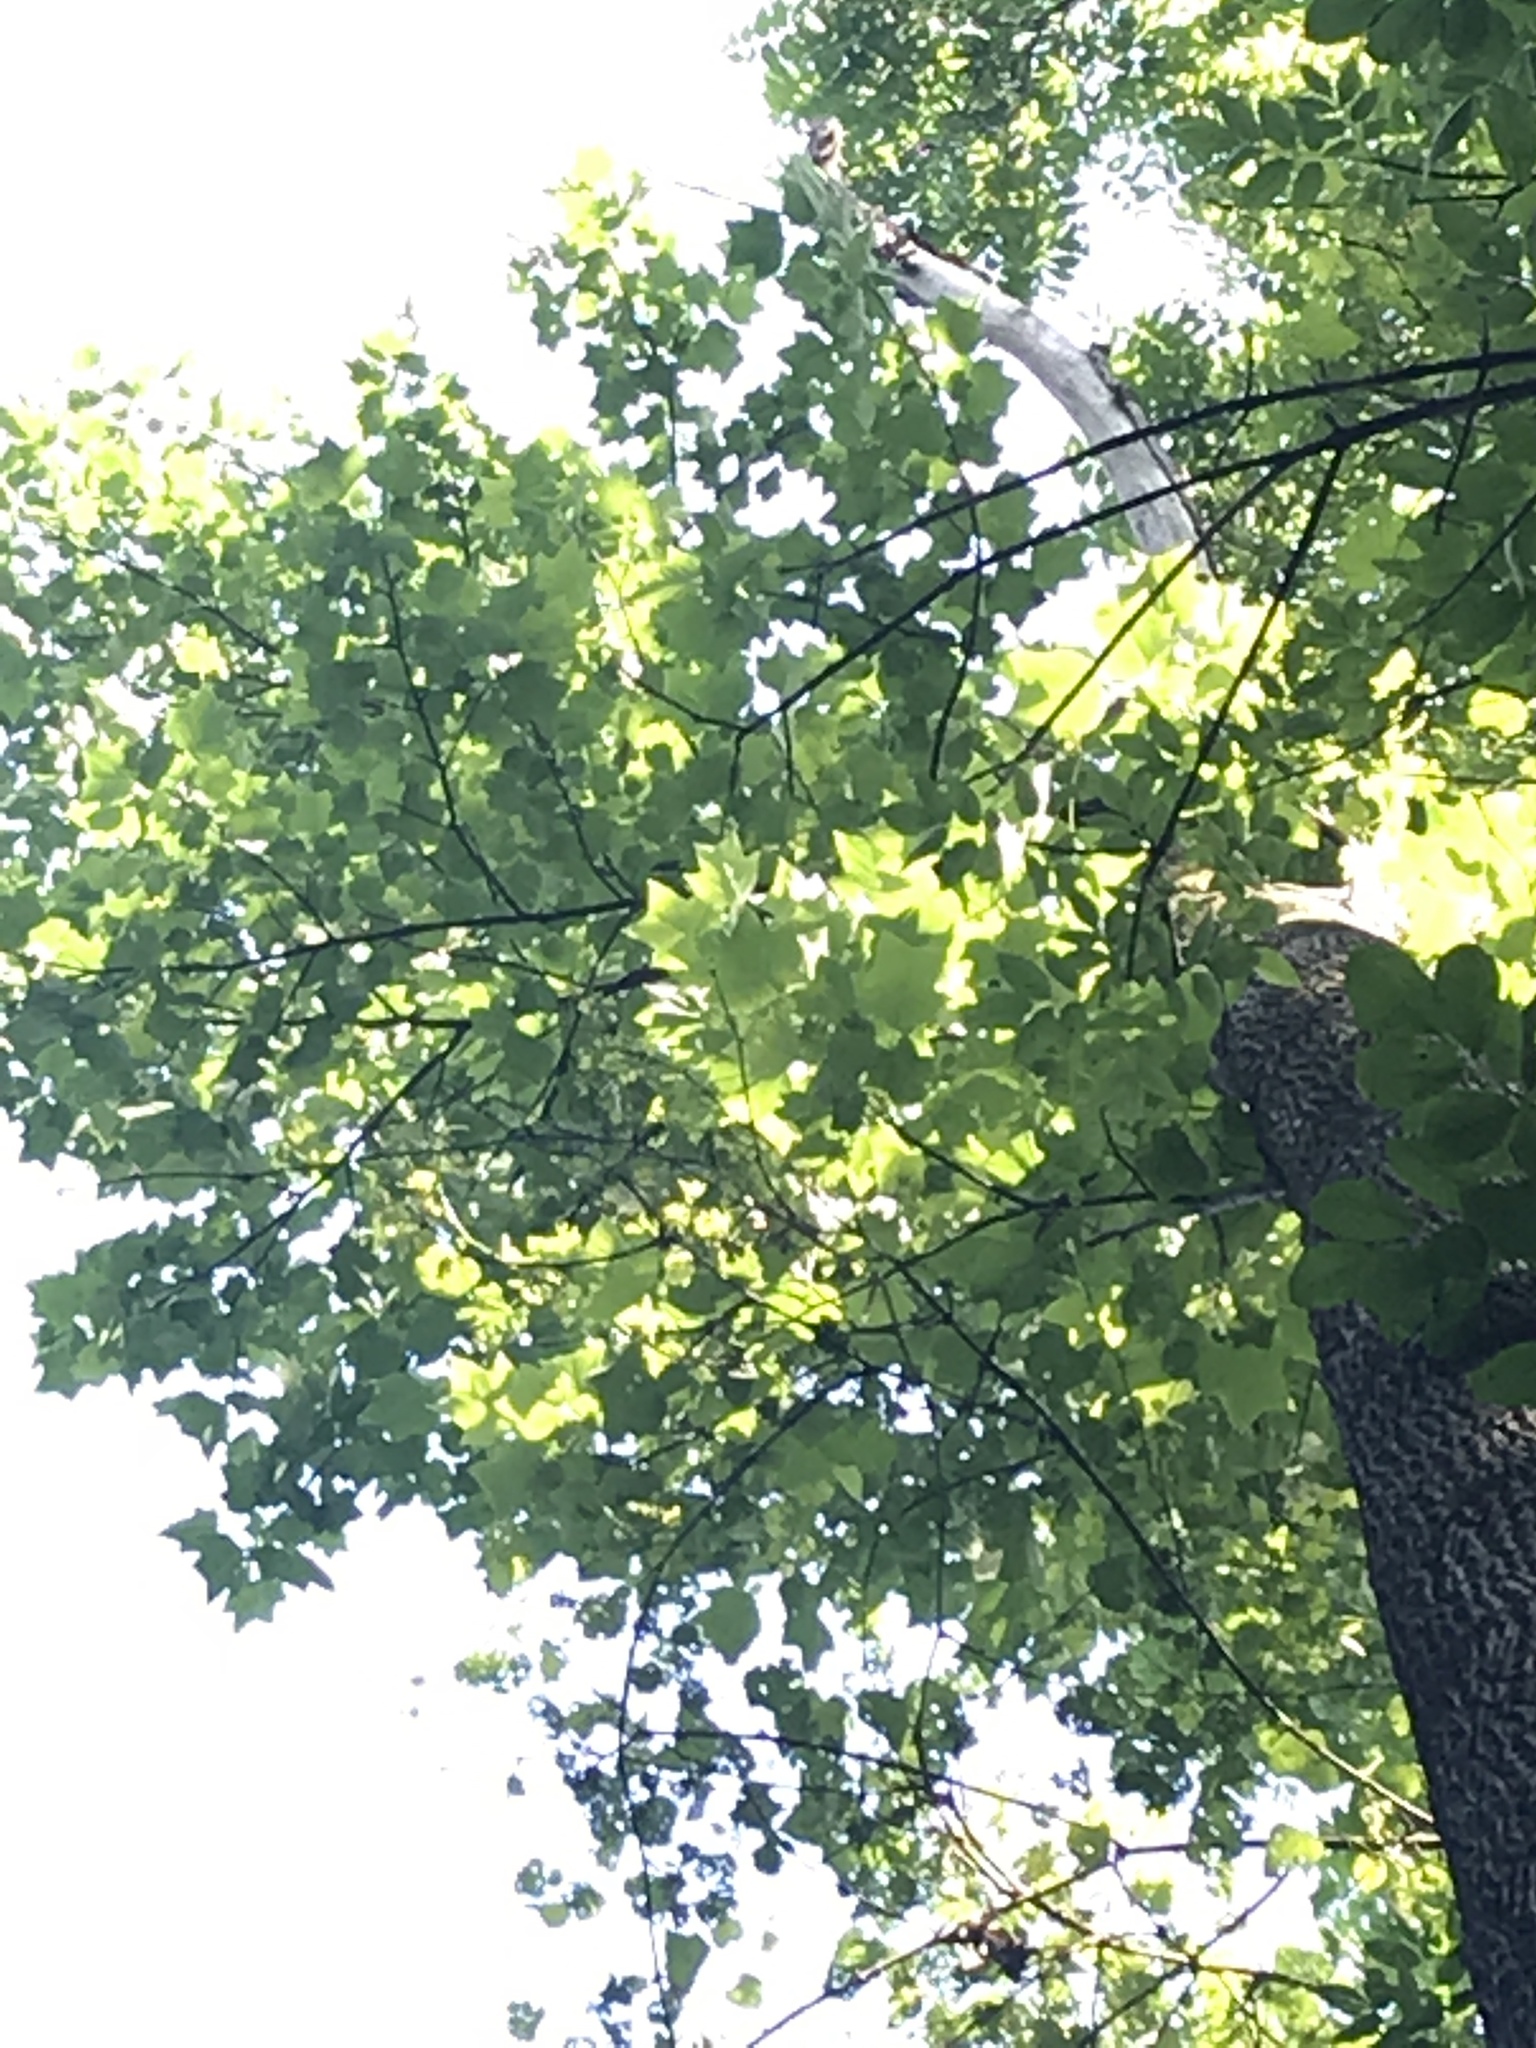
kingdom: Plantae
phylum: Tracheophyta
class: Magnoliopsida
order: Magnoliales
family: Magnoliaceae
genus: Liriodendron
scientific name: Liriodendron tulipifera
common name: Tulip tree
